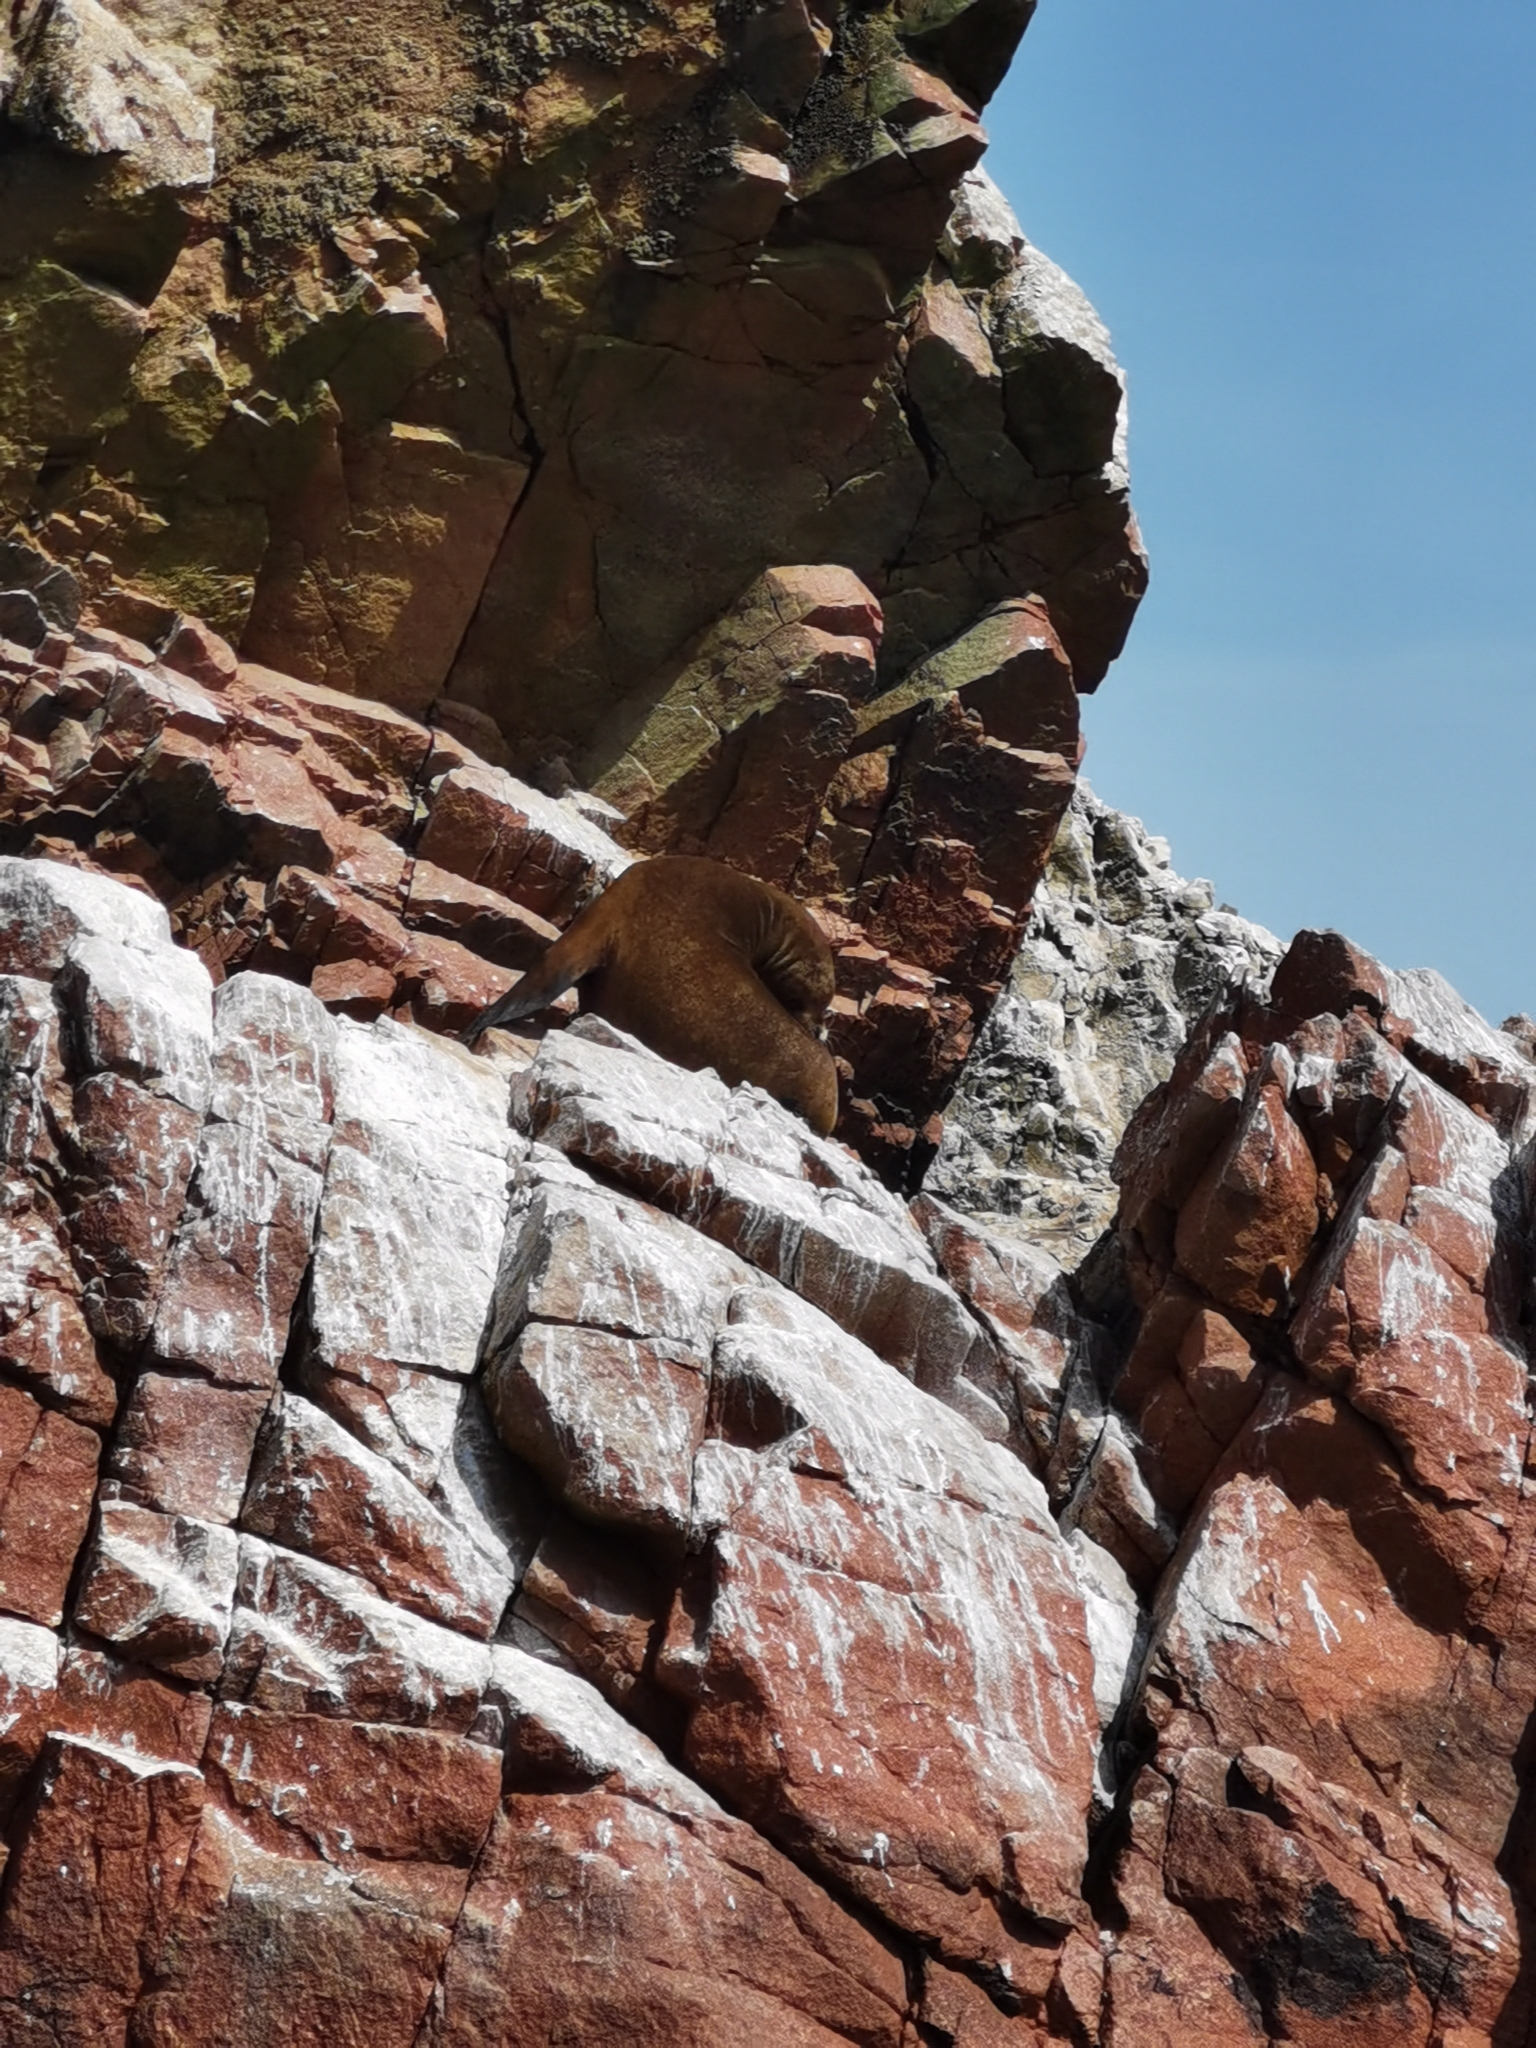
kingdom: Animalia
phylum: Chordata
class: Mammalia
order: Carnivora
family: Otariidae
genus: Otaria
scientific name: Otaria byronia
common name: South american sea lion
